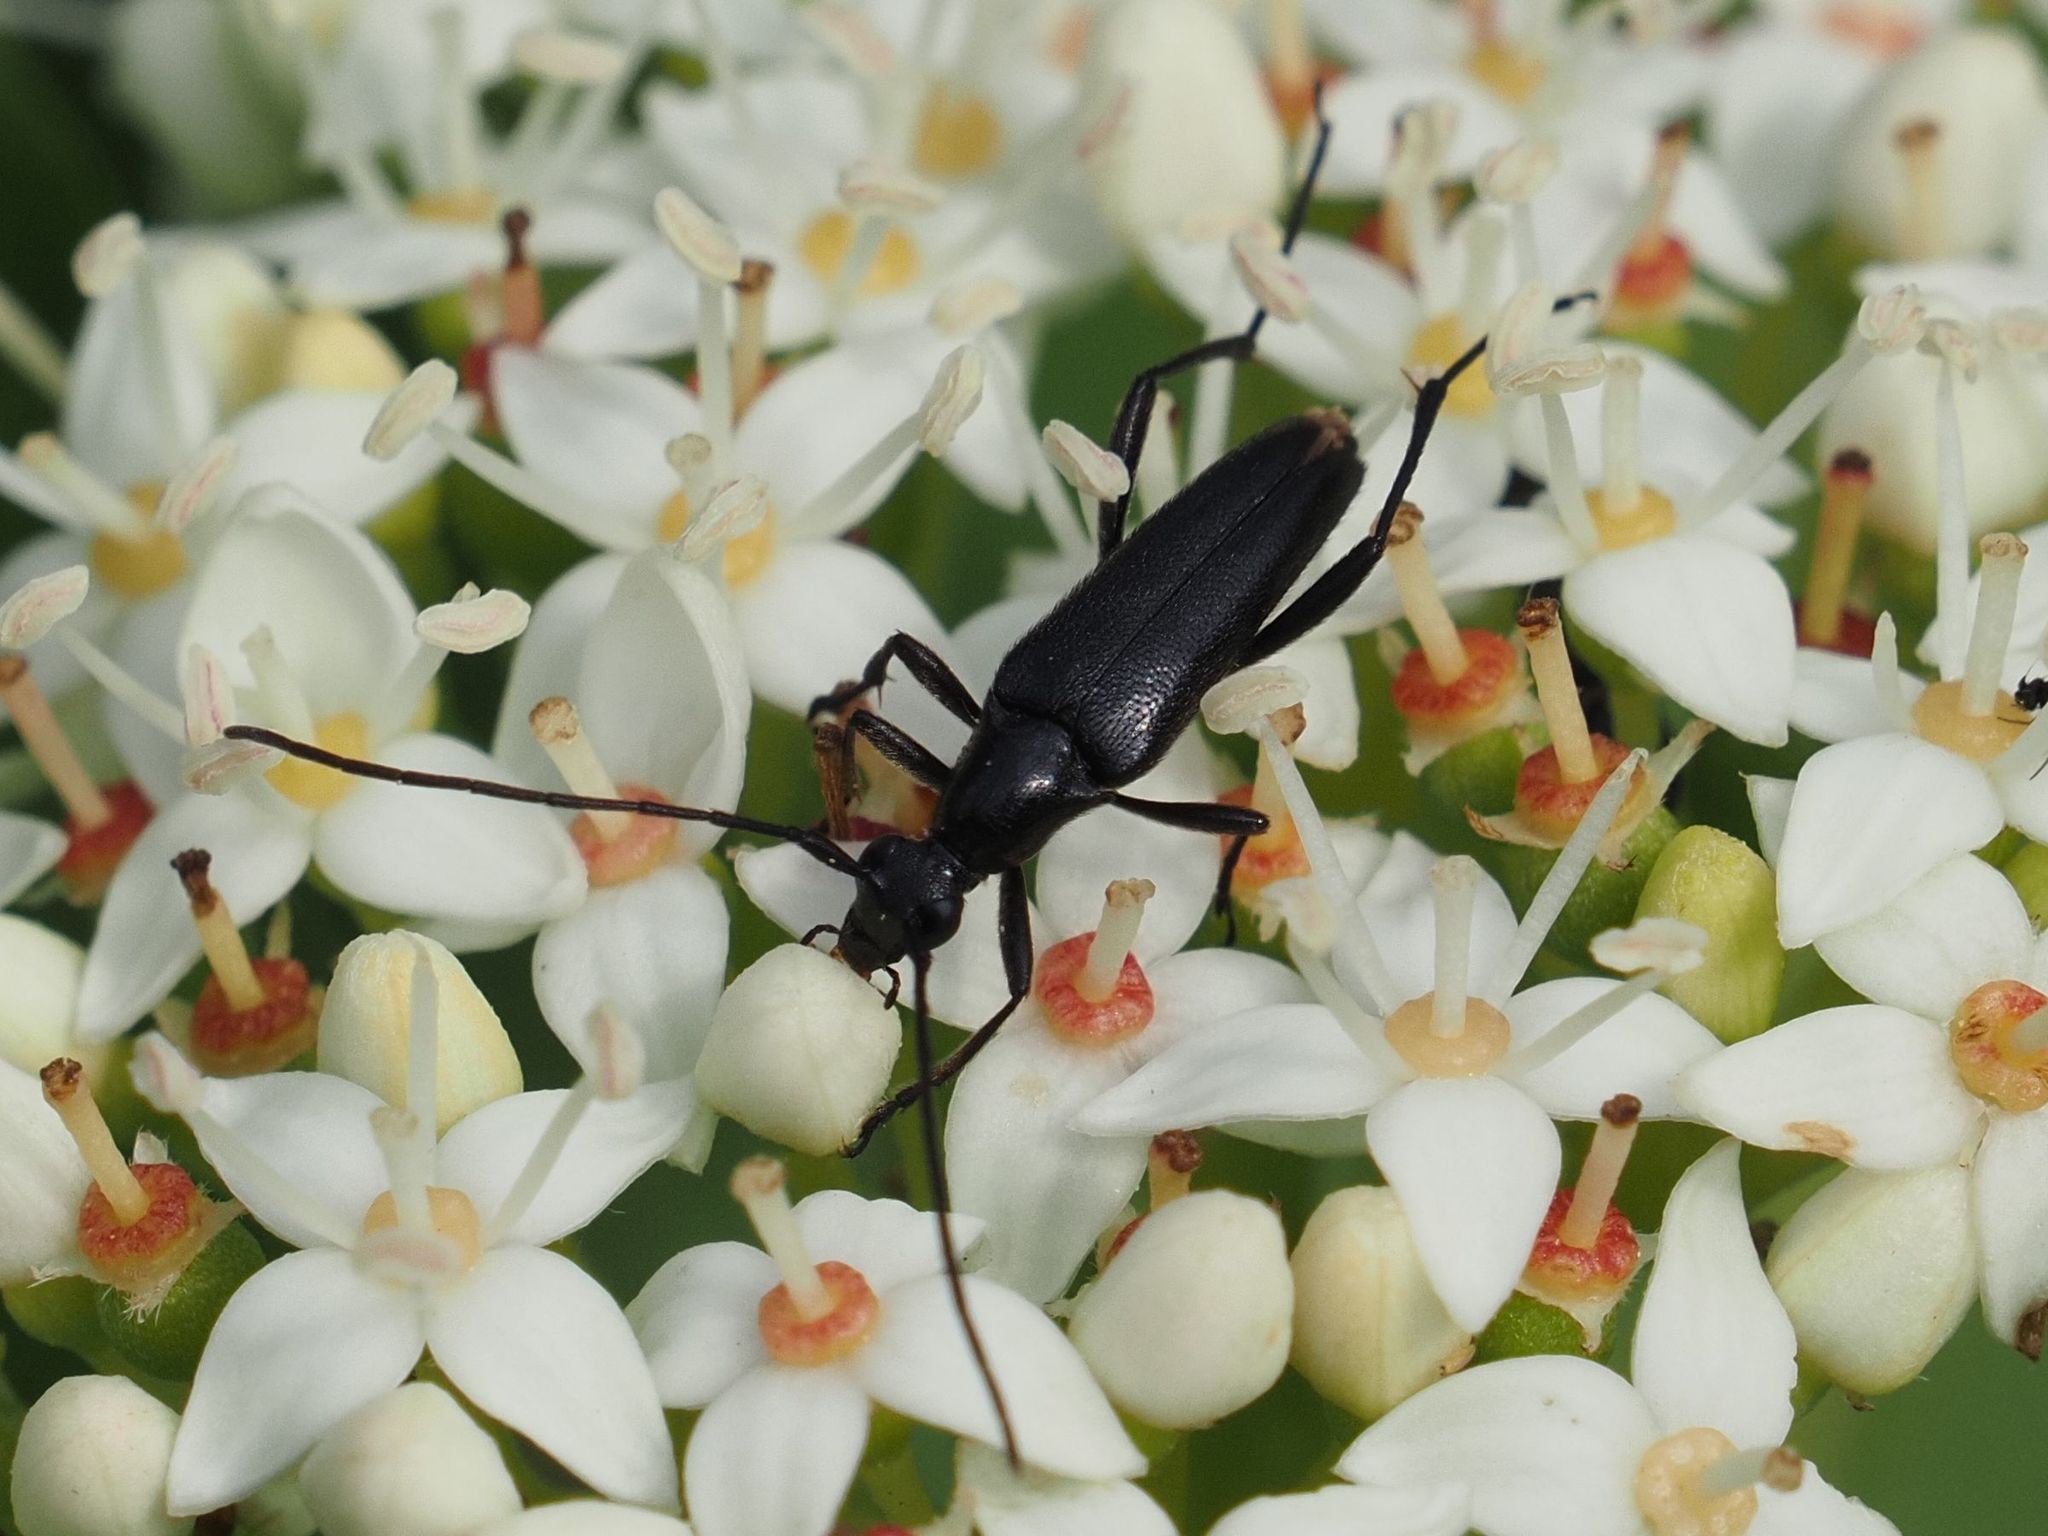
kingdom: Animalia
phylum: Arthropoda
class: Insecta
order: Coleoptera
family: Cerambycidae
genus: Stenurella
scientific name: Stenurella nigra
